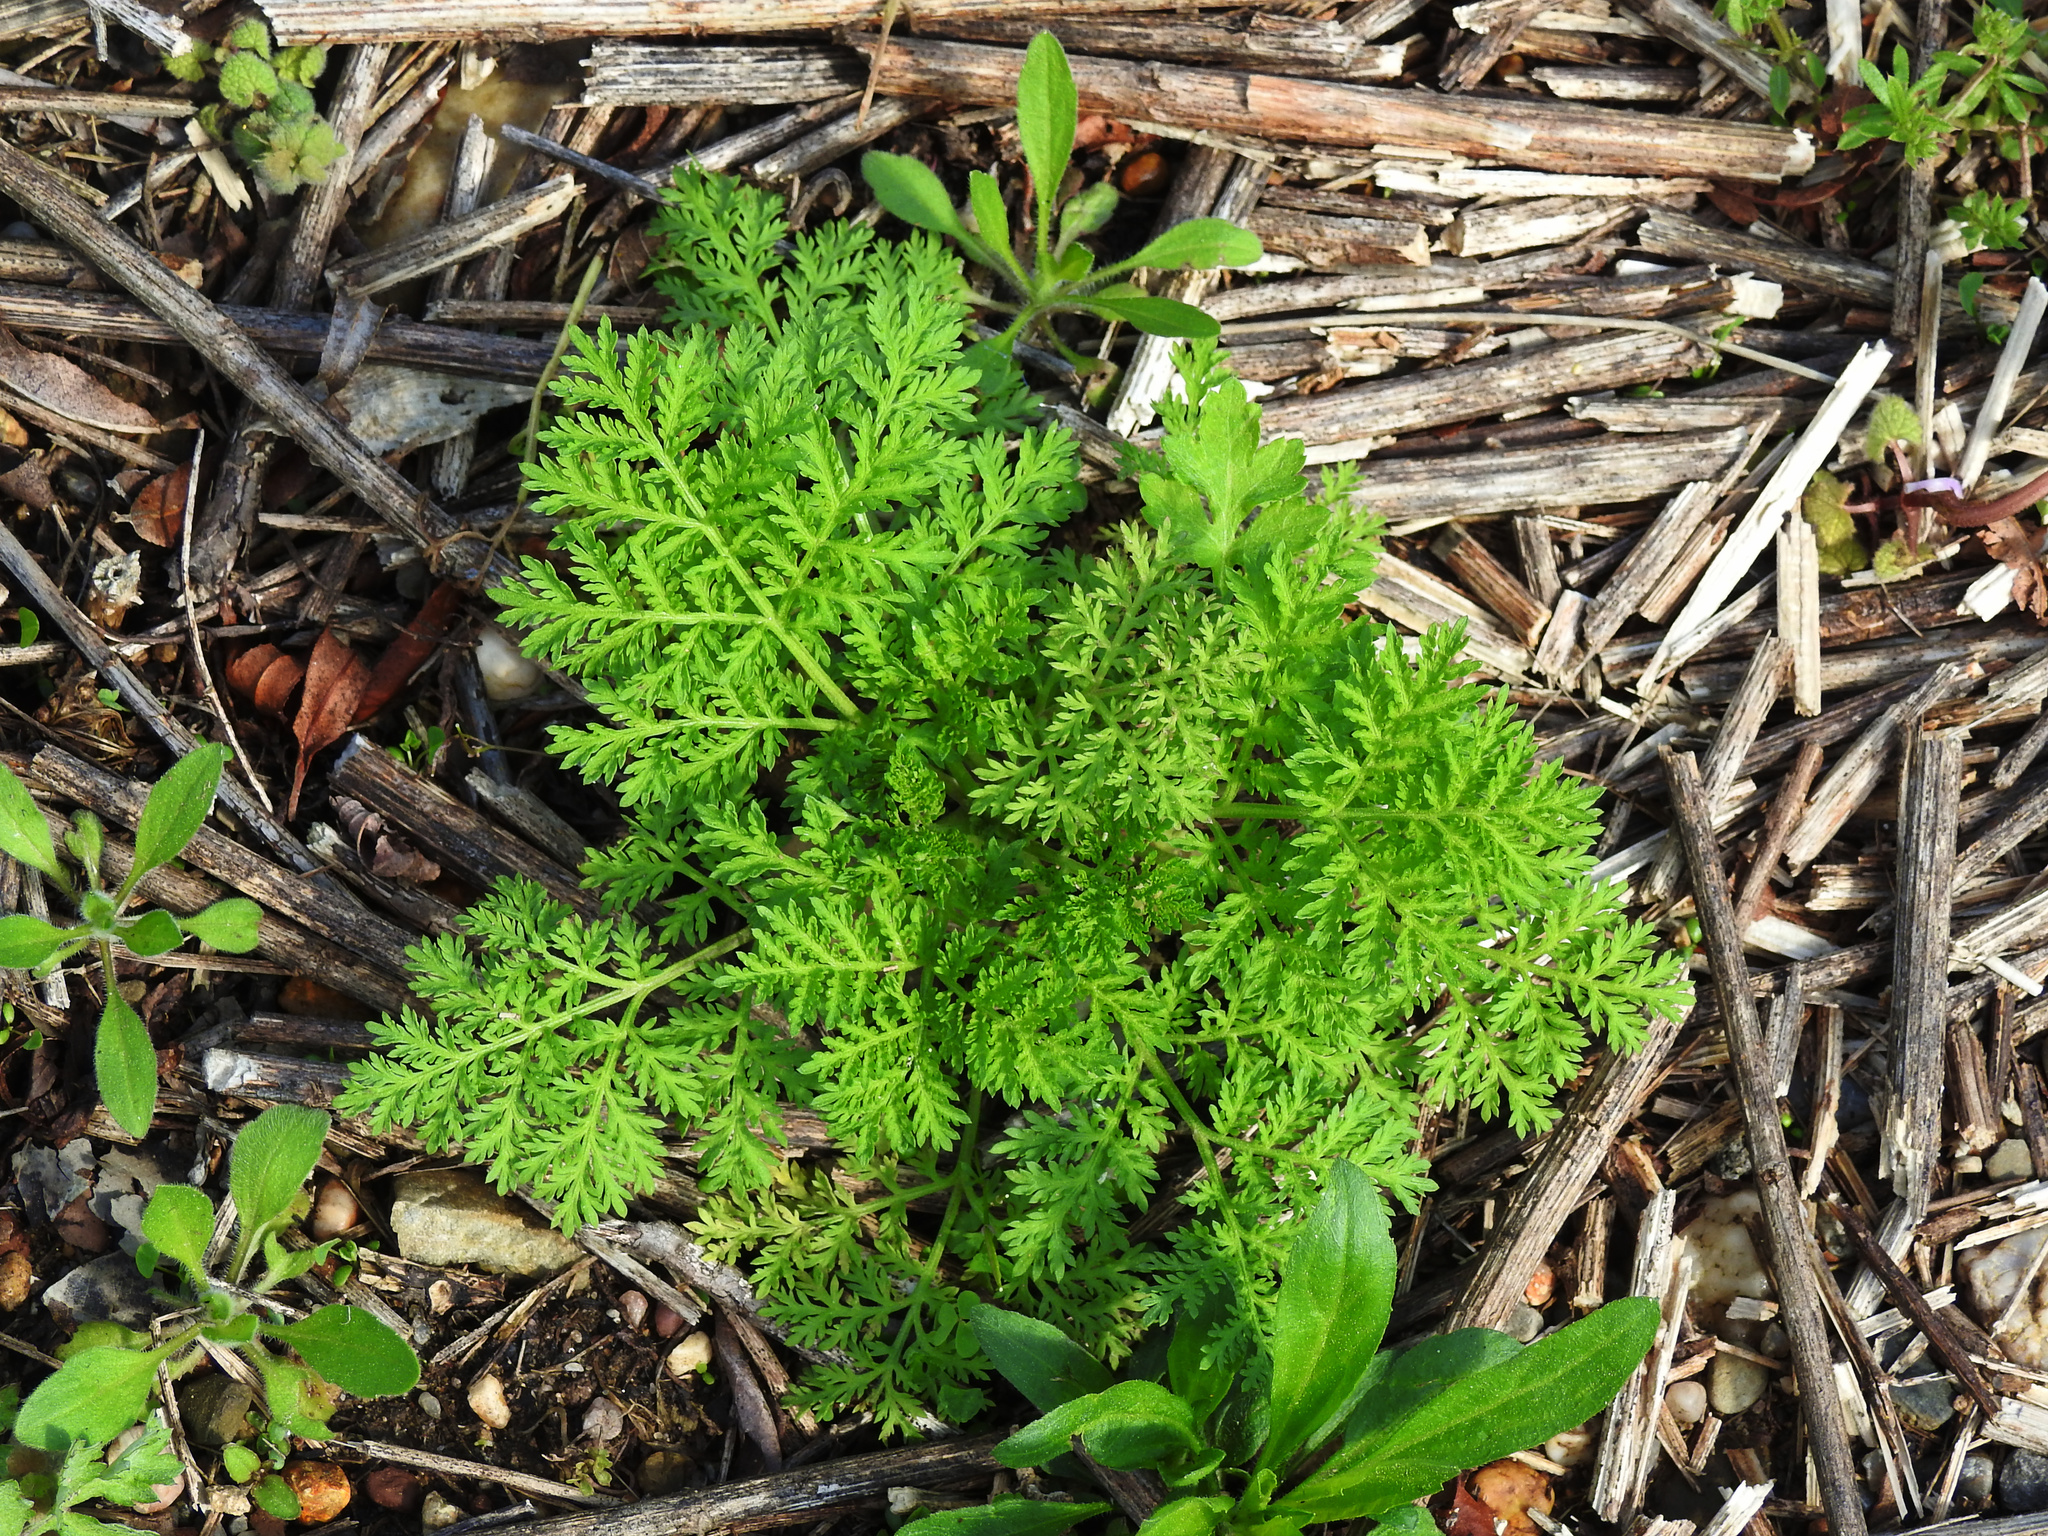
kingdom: Plantae
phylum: Tracheophyta
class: Magnoliopsida
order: Asterales
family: Asteraceae
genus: Artemisia
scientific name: Artemisia annua
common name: Sweet sagewort
